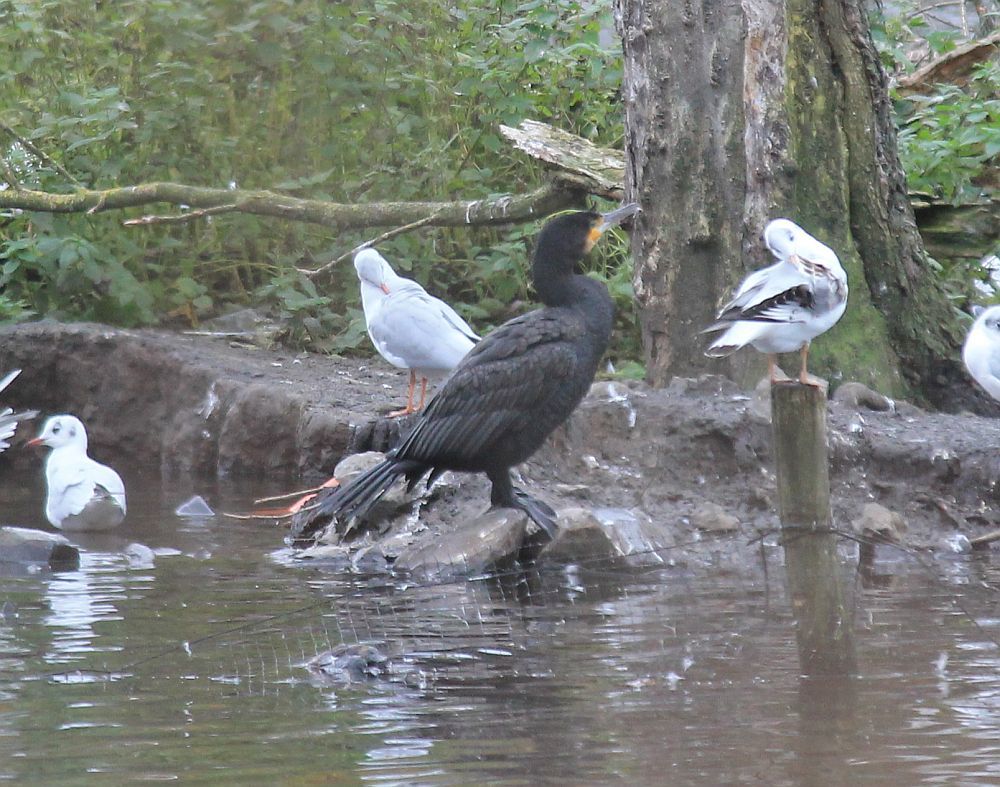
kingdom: Animalia
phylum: Chordata
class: Aves
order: Suliformes
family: Phalacrocoracidae
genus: Phalacrocorax
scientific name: Phalacrocorax carbo
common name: Great cormorant
